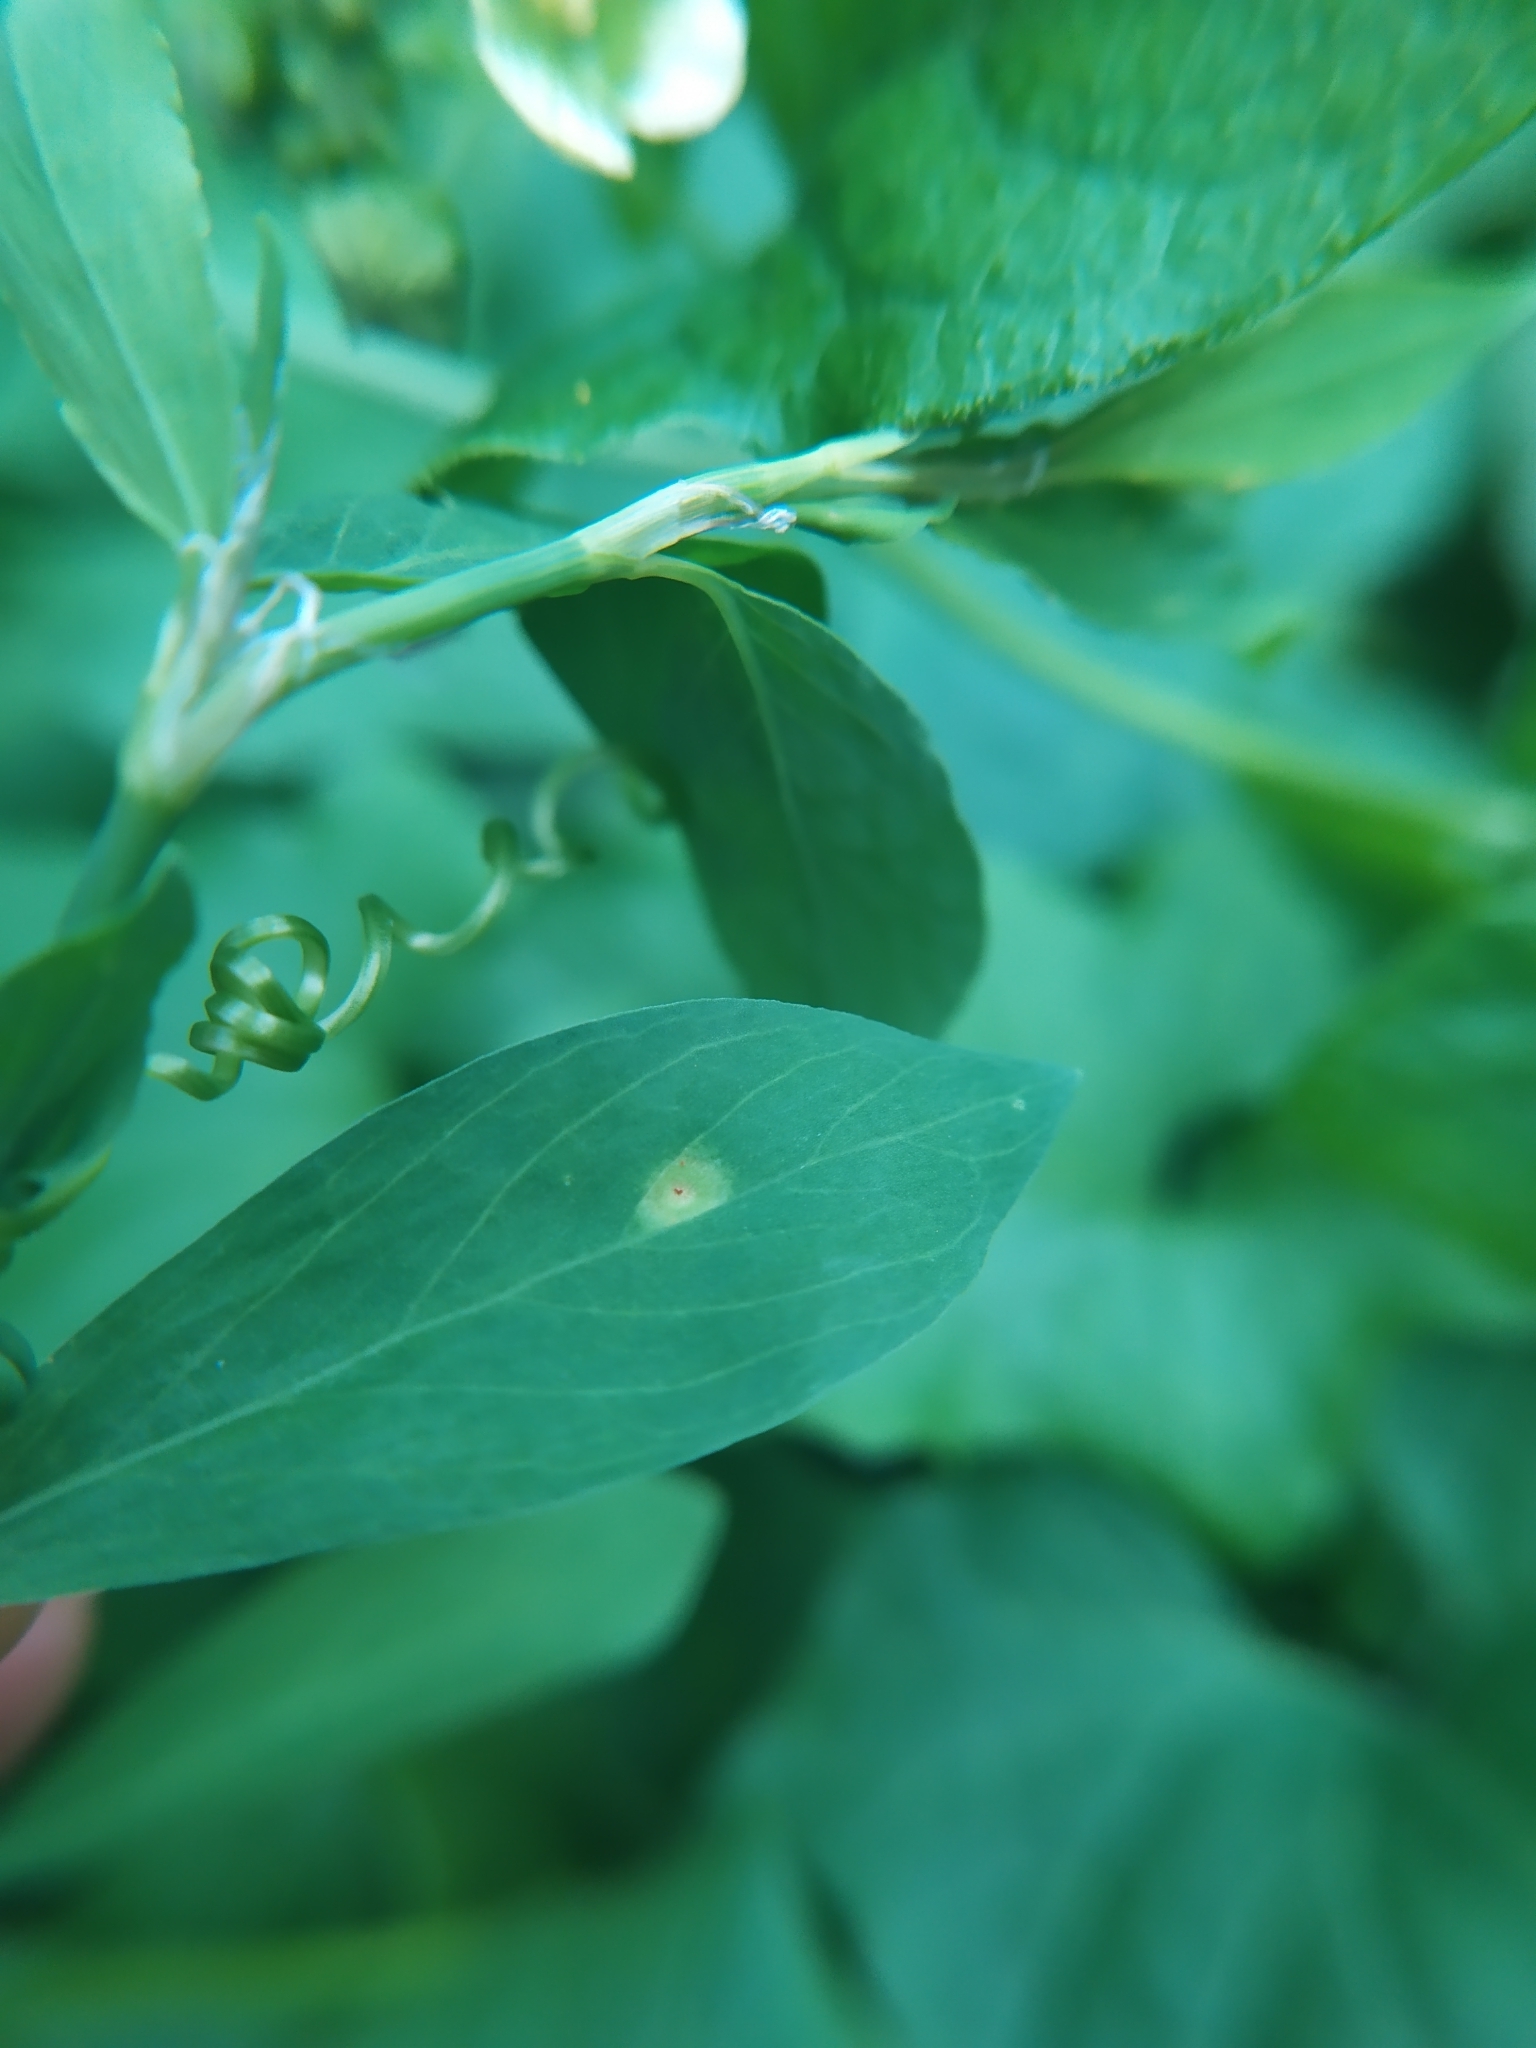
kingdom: Fungi
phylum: Basidiomycota
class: Pucciniomycetes
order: Pucciniales
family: Pucciniaceae
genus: Uromyces
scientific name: Uromyces polygoni-avicularis
